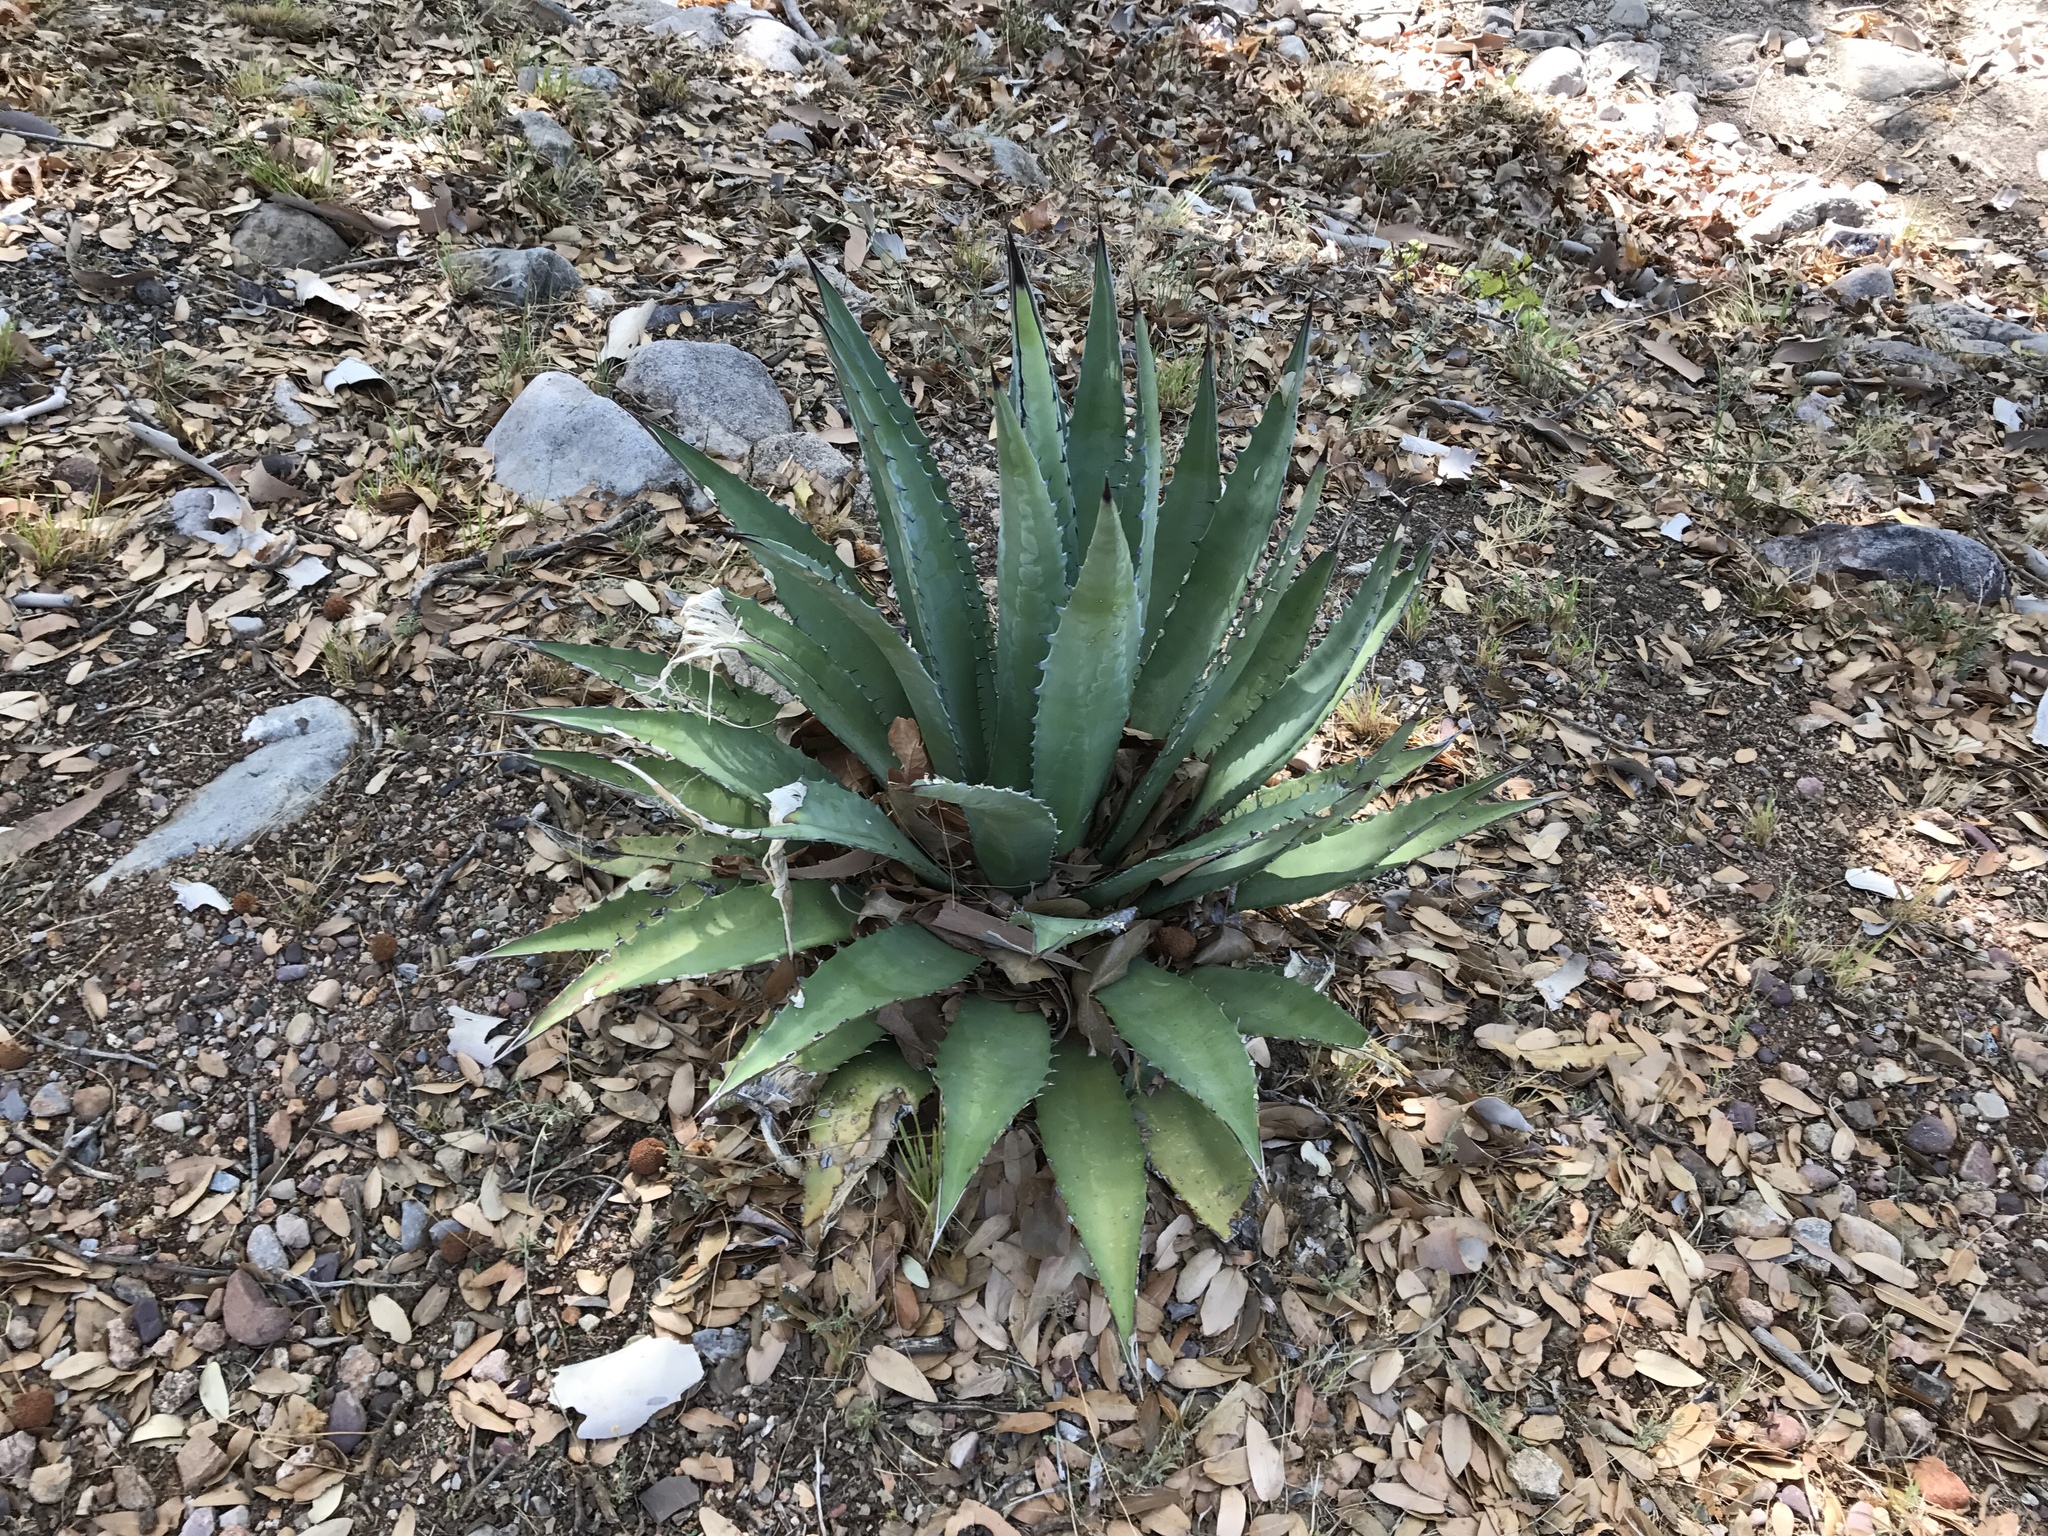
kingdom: Plantae
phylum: Tracheophyta
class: Liliopsida
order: Asparagales
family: Asparagaceae
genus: Agave
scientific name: Agave shrevei
